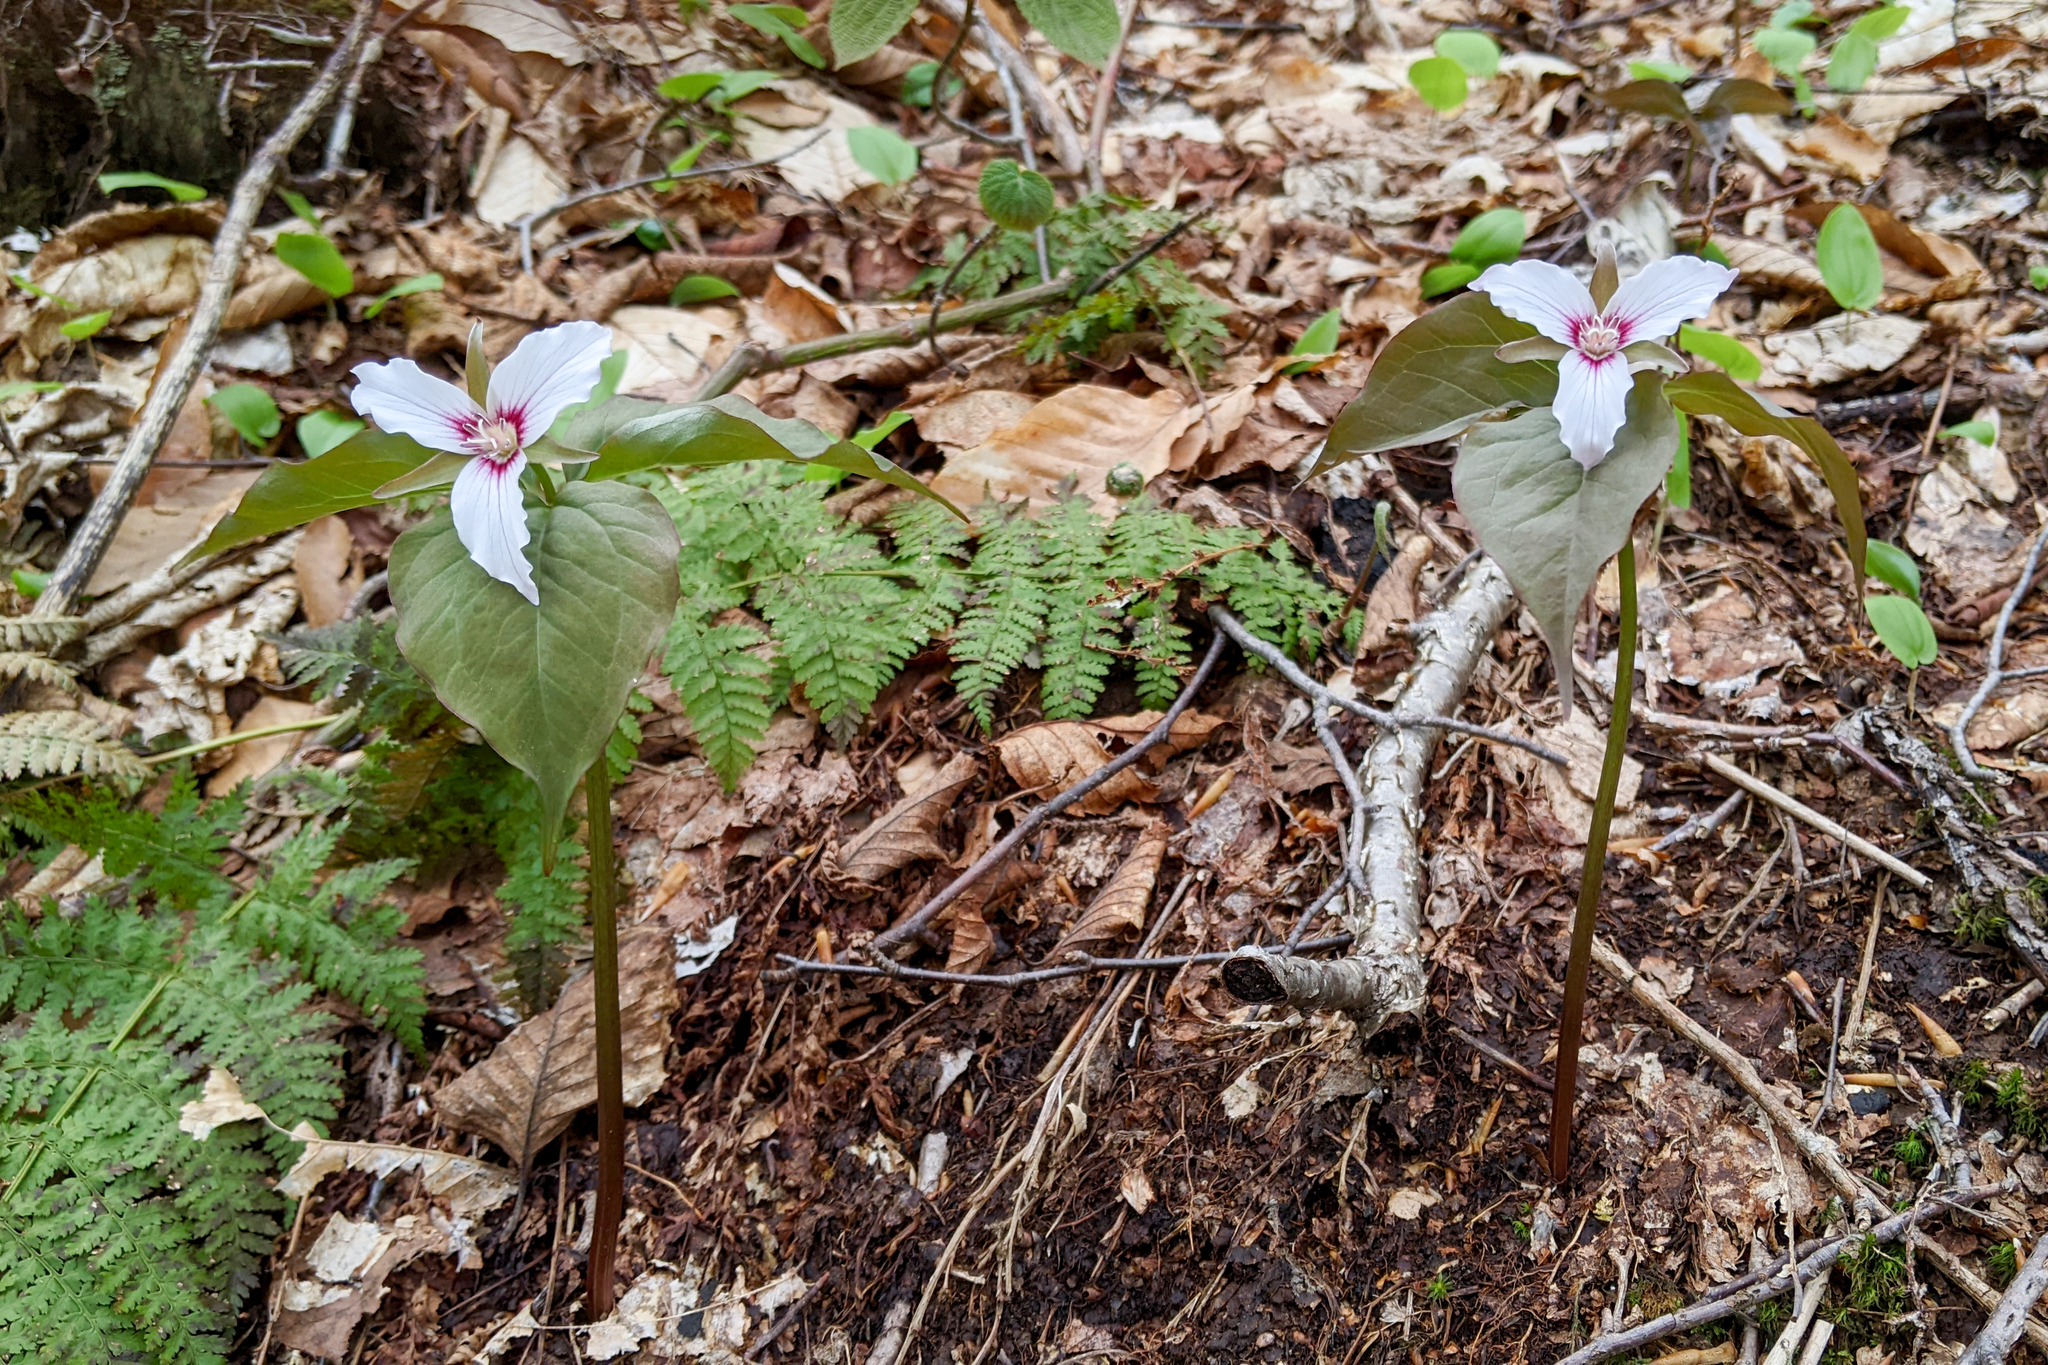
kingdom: Plantae
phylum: Tracheophyta
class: Liliopsida
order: Liliales
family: Melanthiaceae
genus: Trillium
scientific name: Trillium undulatum
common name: Paint trillium
